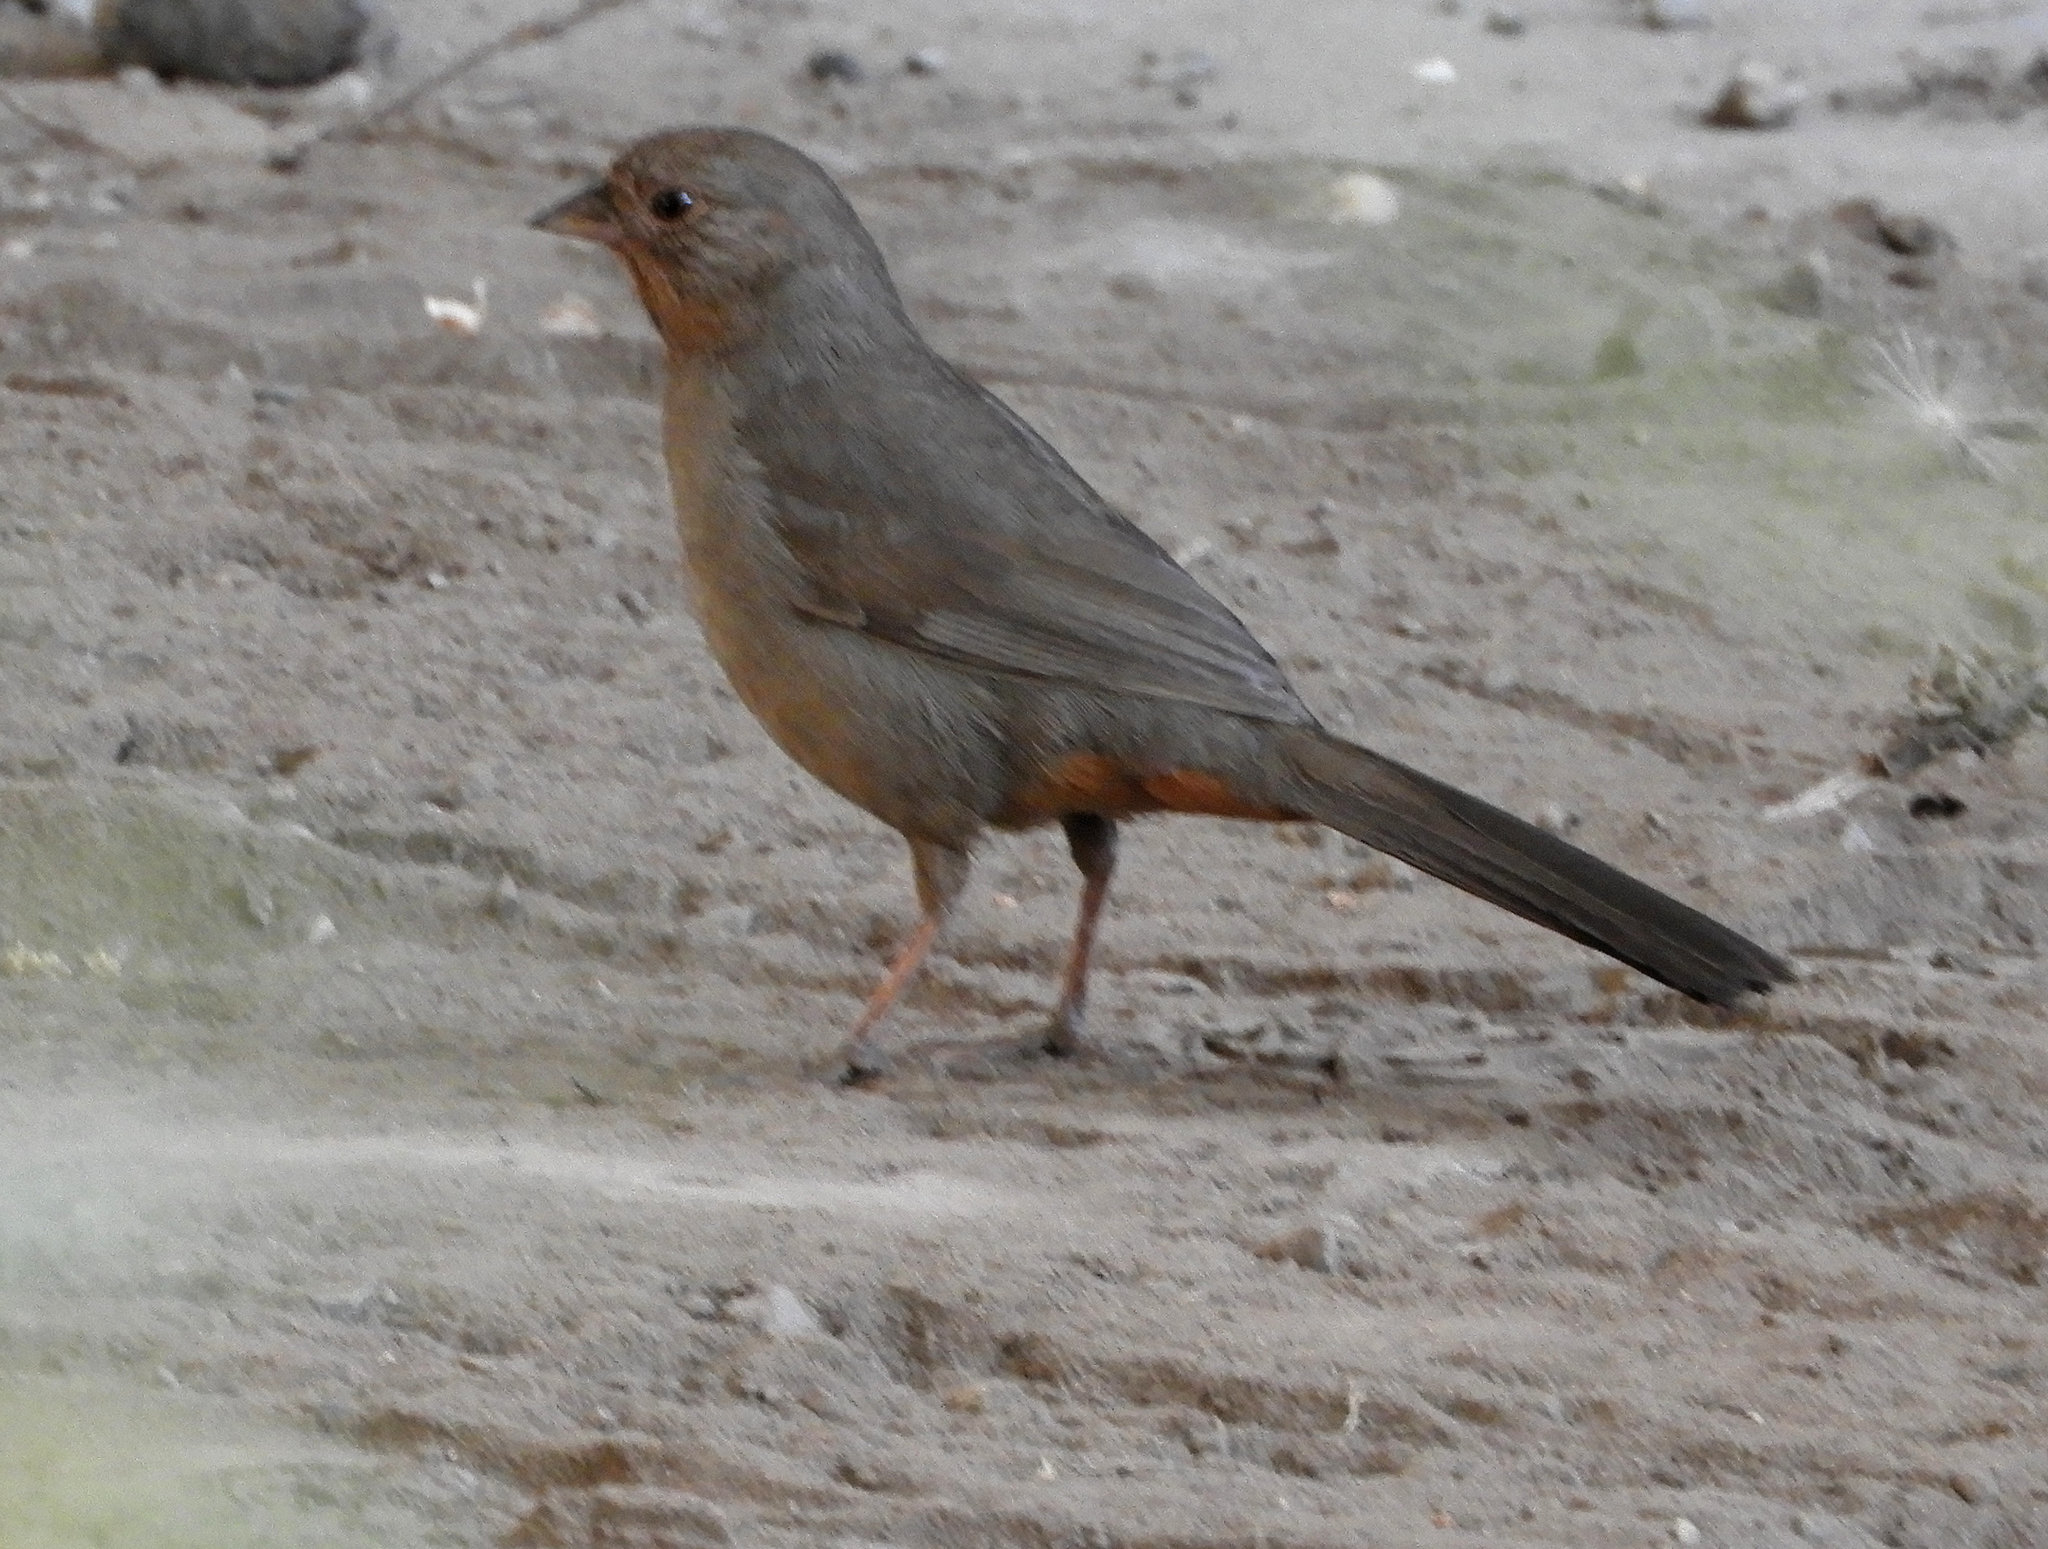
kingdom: Animalia
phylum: Chordata
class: Aves
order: Passeriformes
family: Passerellidae
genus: Melozone
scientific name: Melozone crissalis
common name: California towhee
